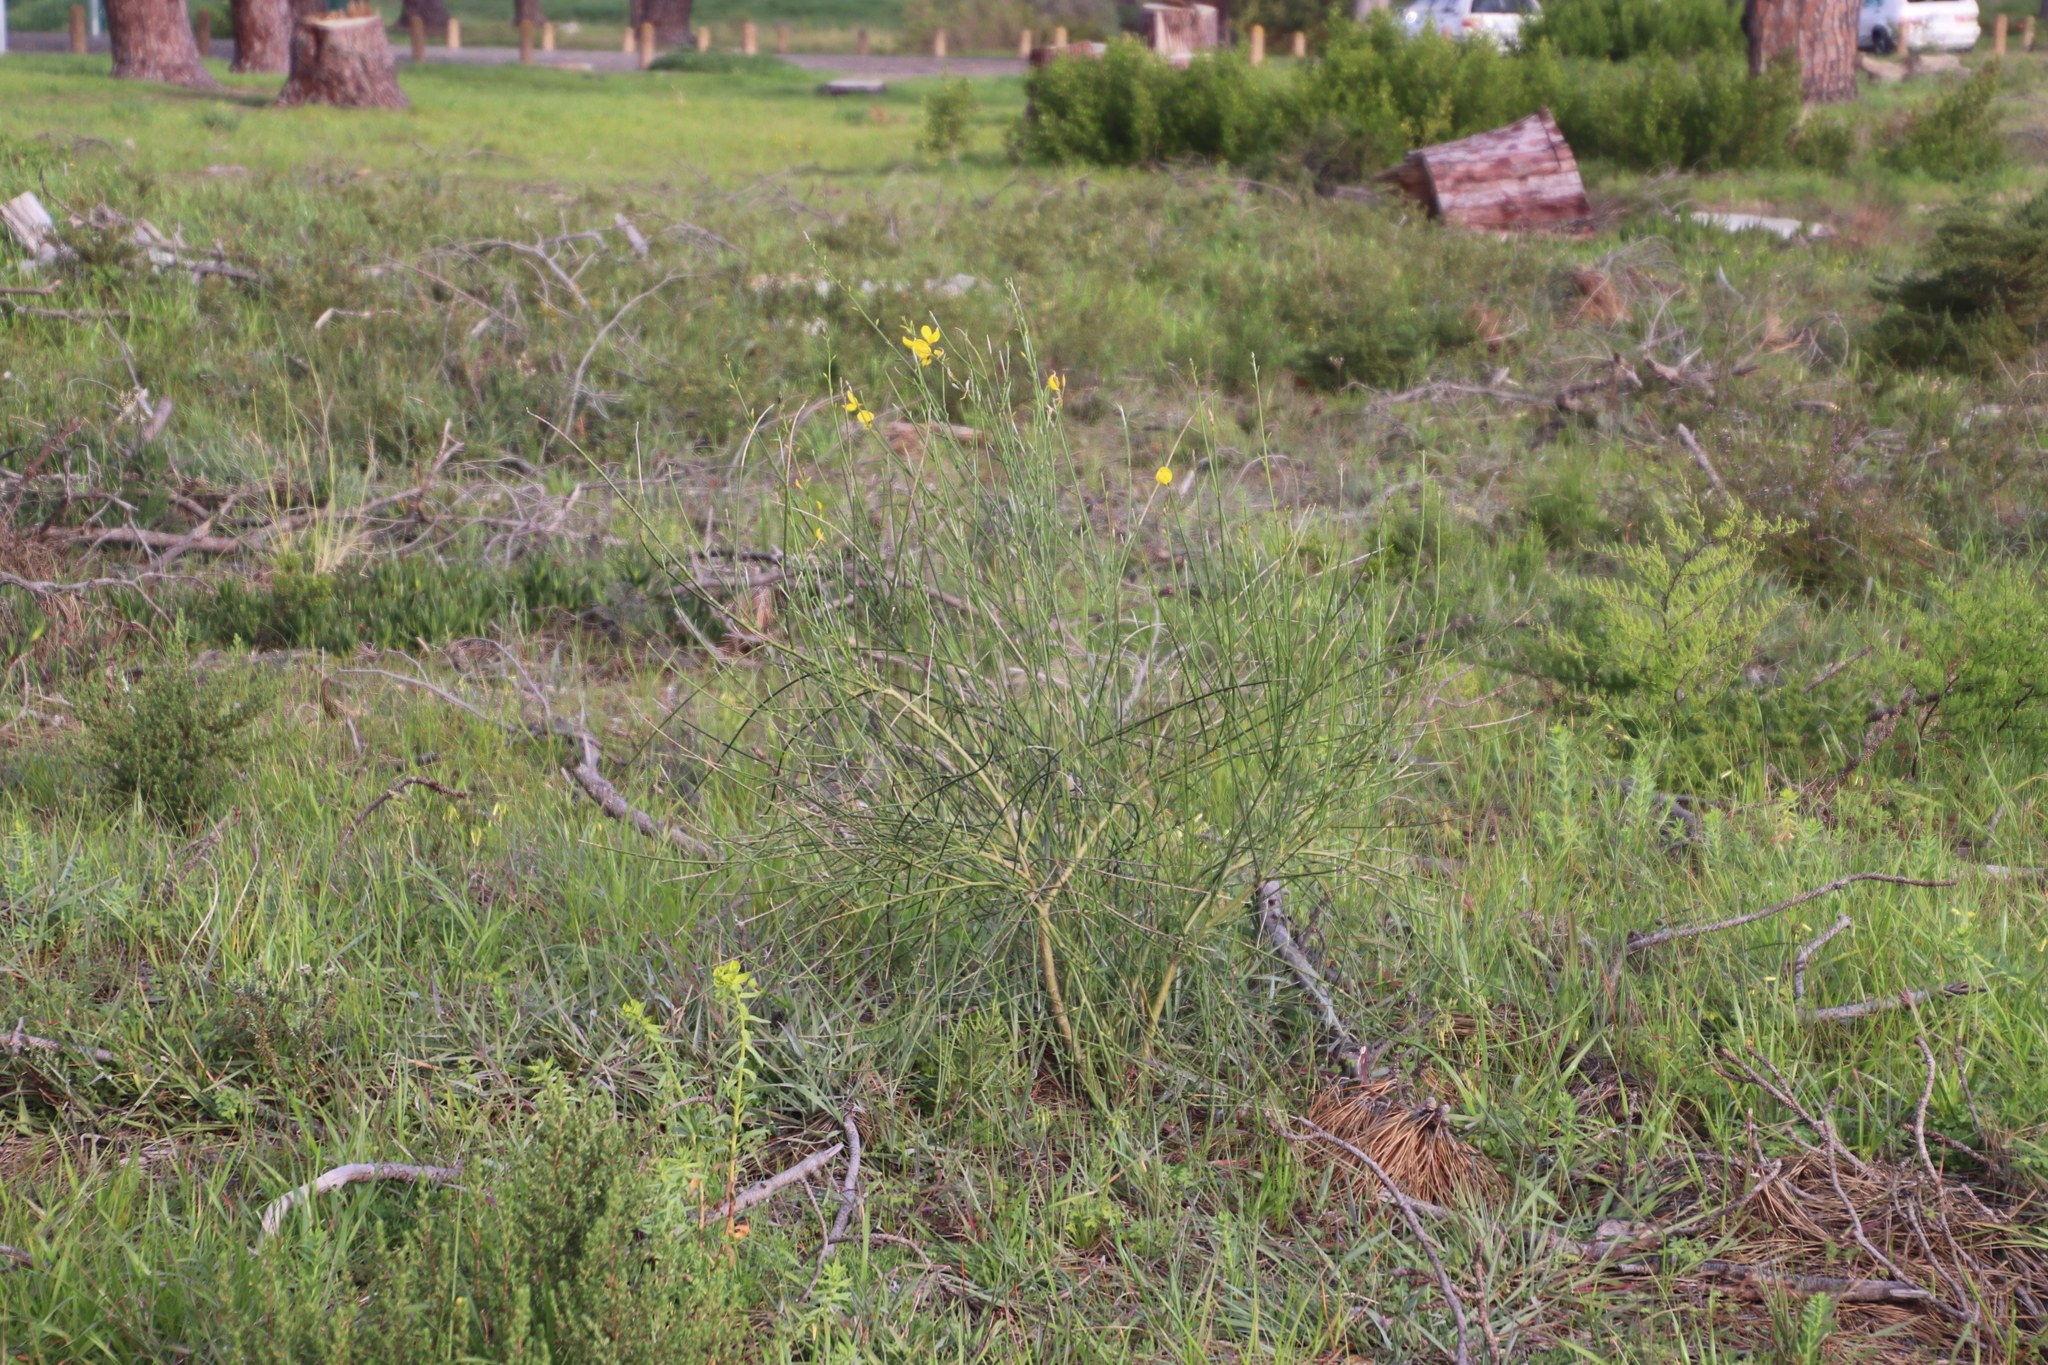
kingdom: Plantae
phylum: Tracheophyta
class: Magnoliopsida
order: Fabales
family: Fabaceae
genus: Spartium
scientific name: Spartium junceum
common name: Spanish broom
